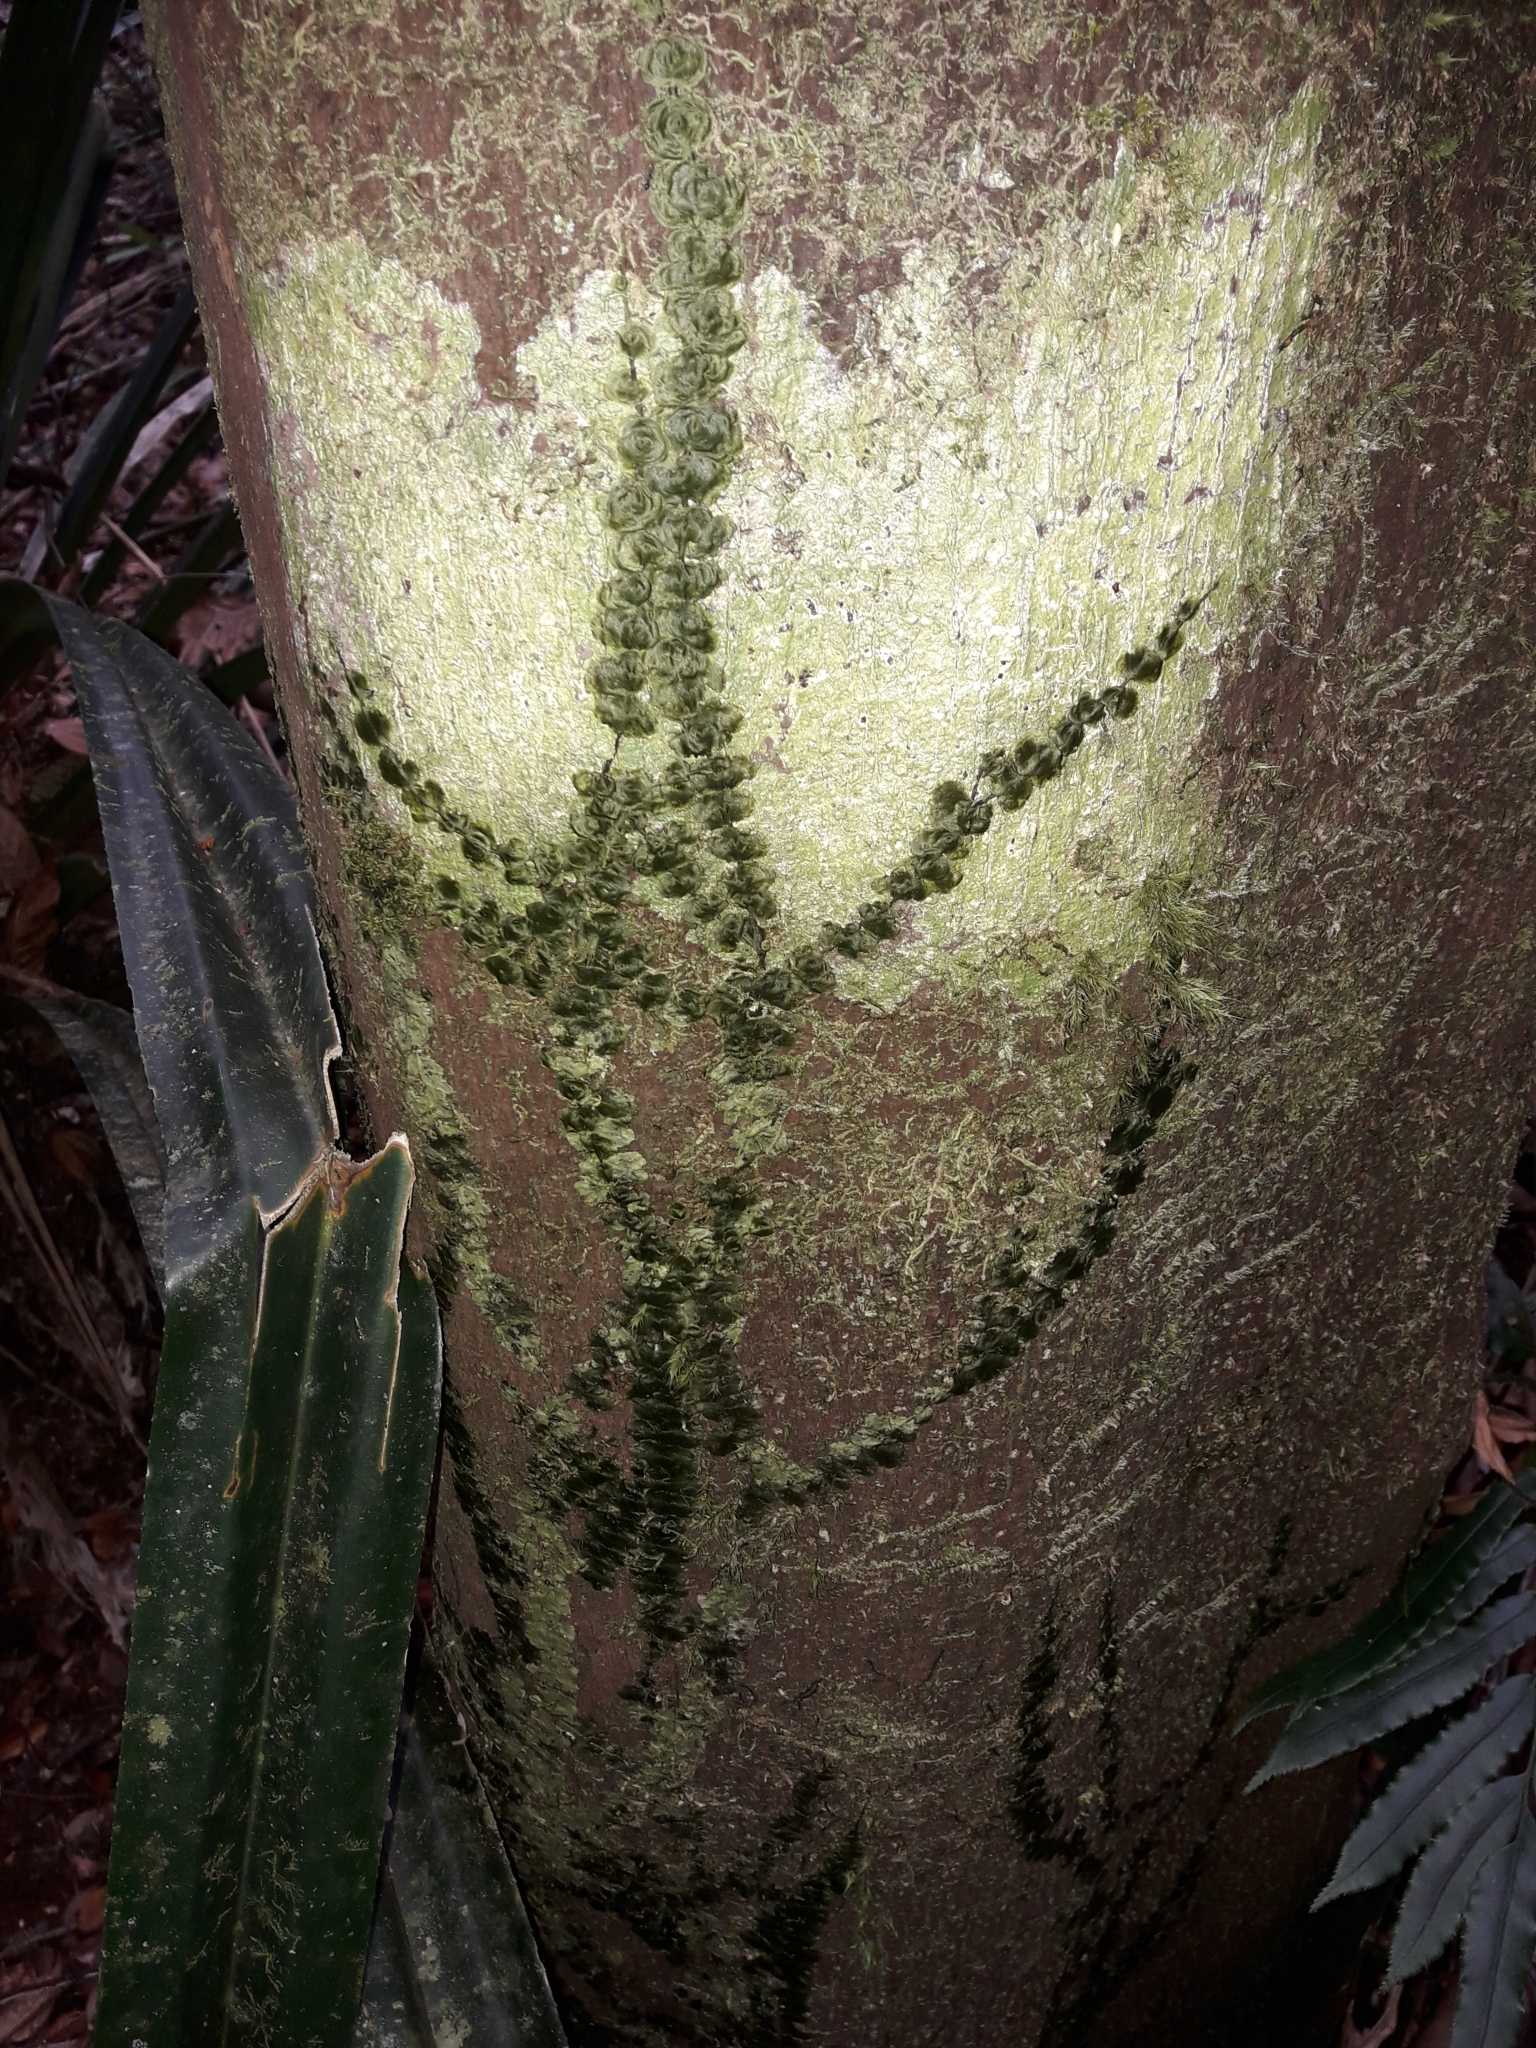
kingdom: Plantae
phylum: Tracheophyta
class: Polypodiopsida
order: Hymenophyllales
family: Hymenophyllaceae
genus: Didymoglossum
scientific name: Didymoglossum tahitense
